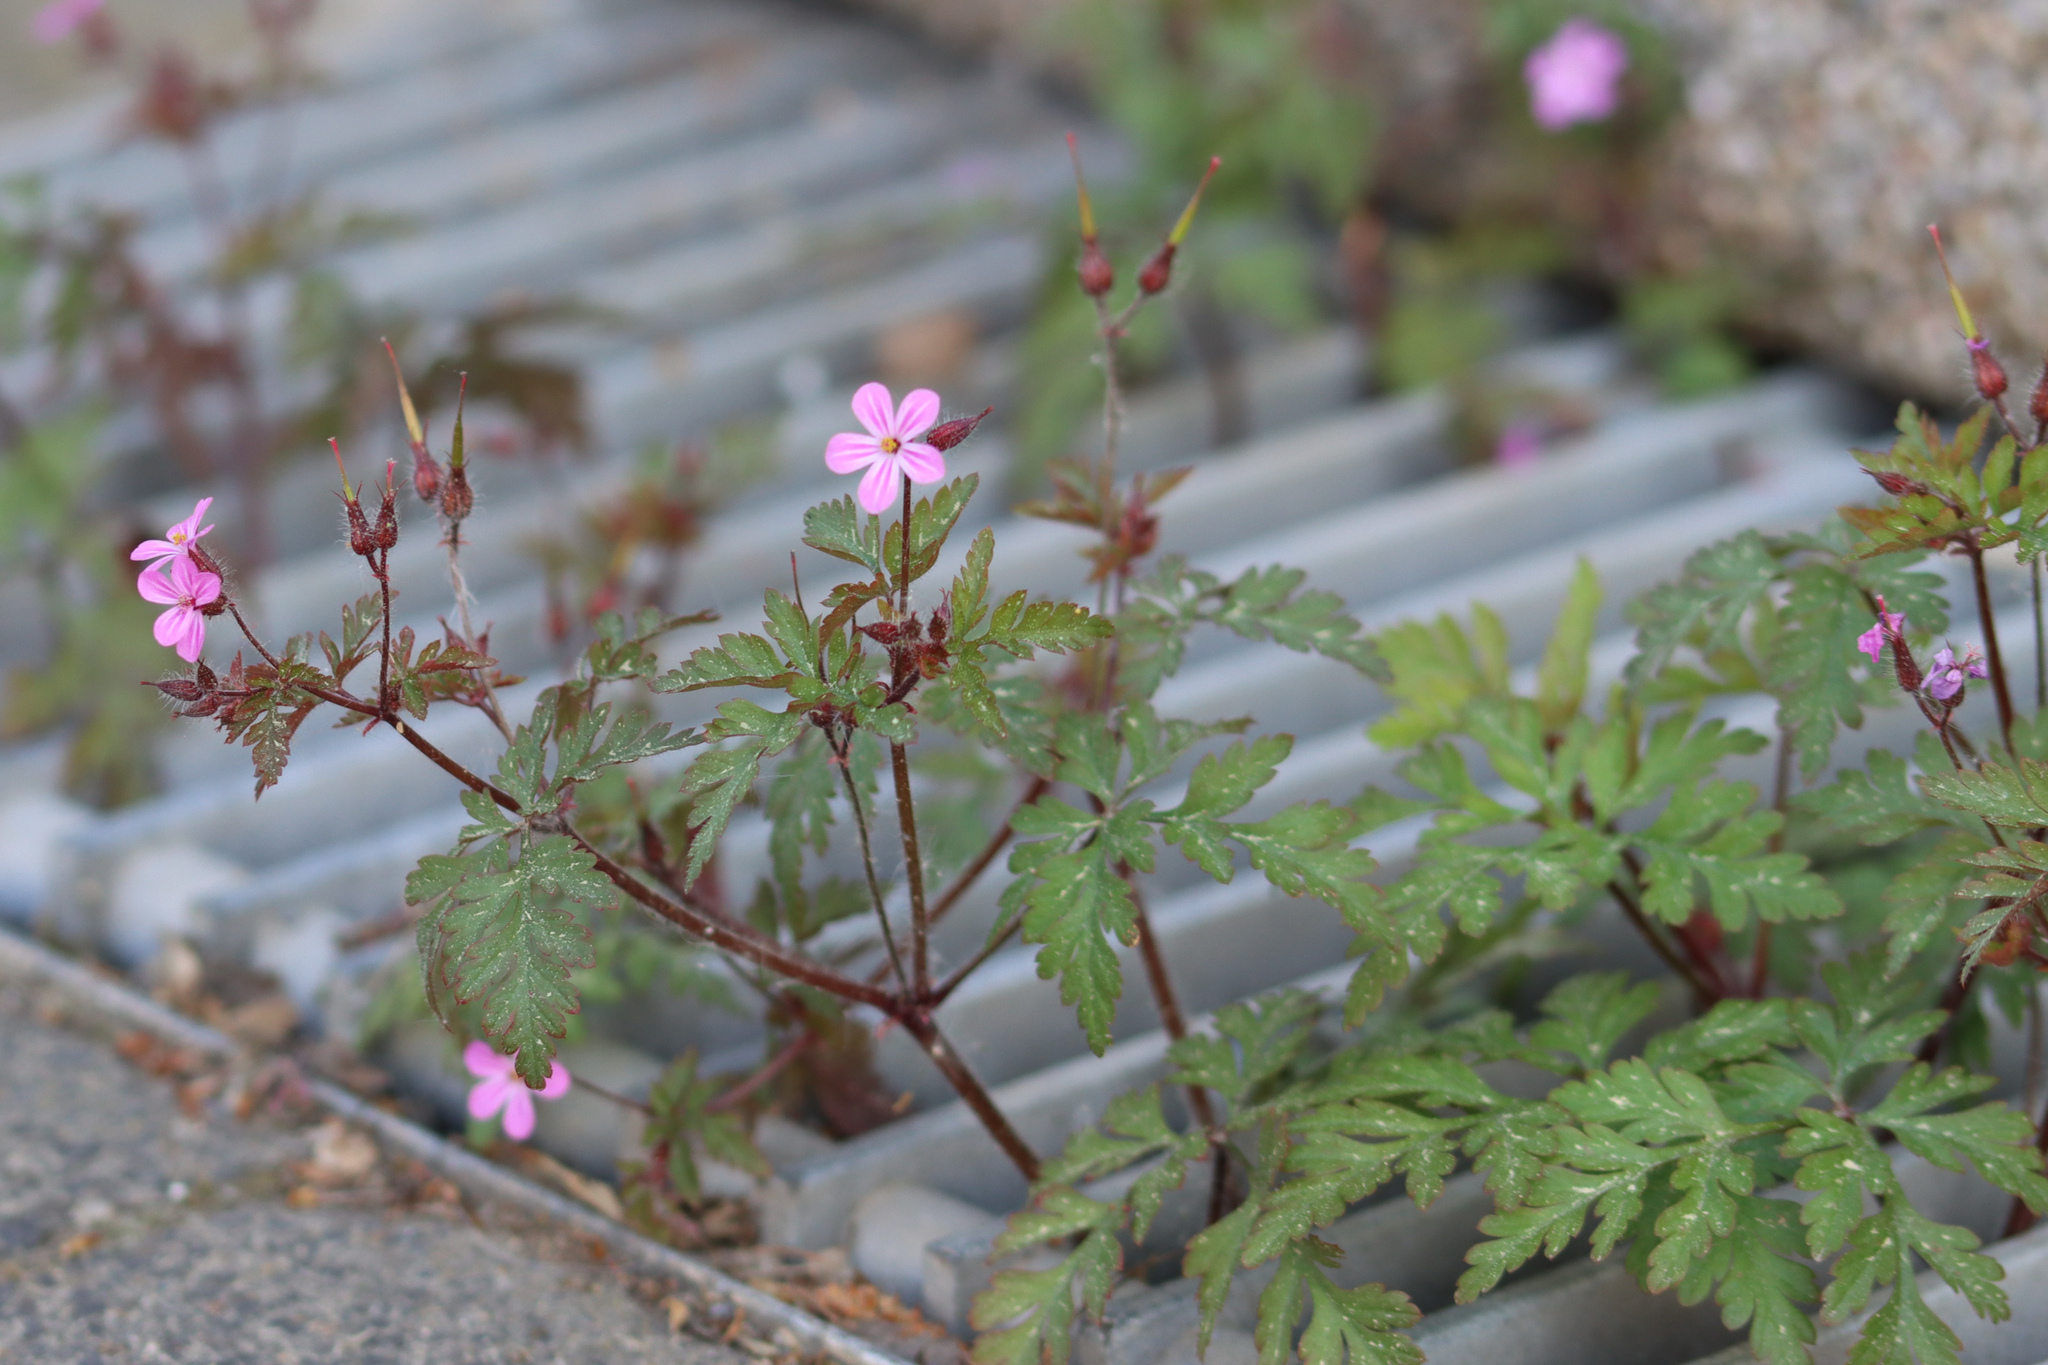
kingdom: Plantae
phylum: Tracheophyta
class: Magnoliopsida
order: Geraniales
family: Geraniaceae
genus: Geranium
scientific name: Geranium robertianum
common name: Herb-robert
